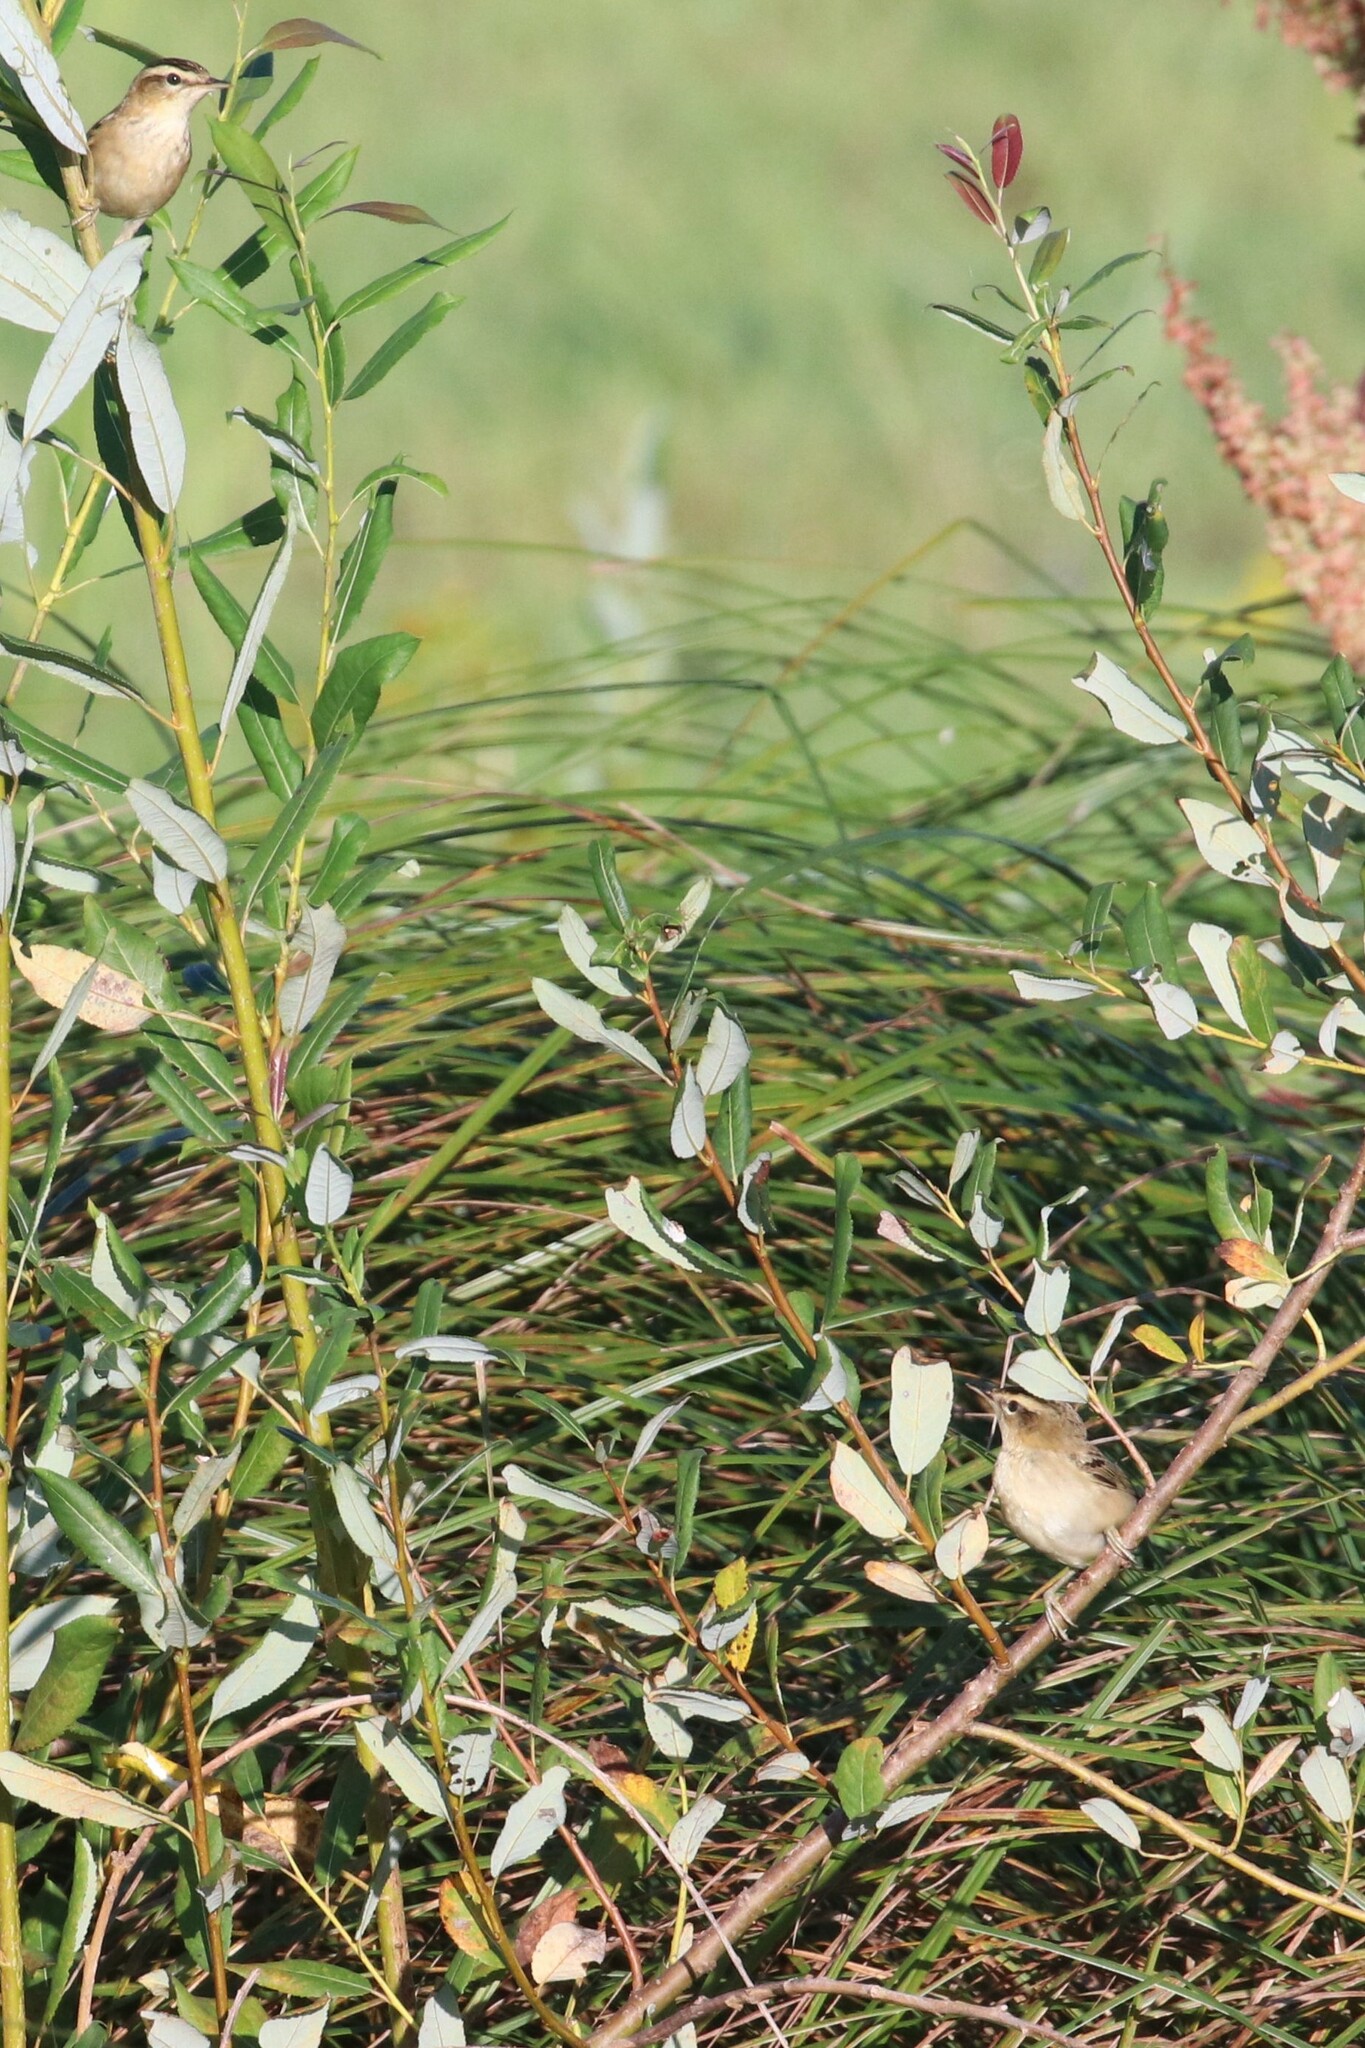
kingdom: Animalia
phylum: Chordata
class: Aves
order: Passeriformes
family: Acrocephalidae
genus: Acrocephalus
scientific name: Acrocephalus schoenobaenus
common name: Sedge warbler
